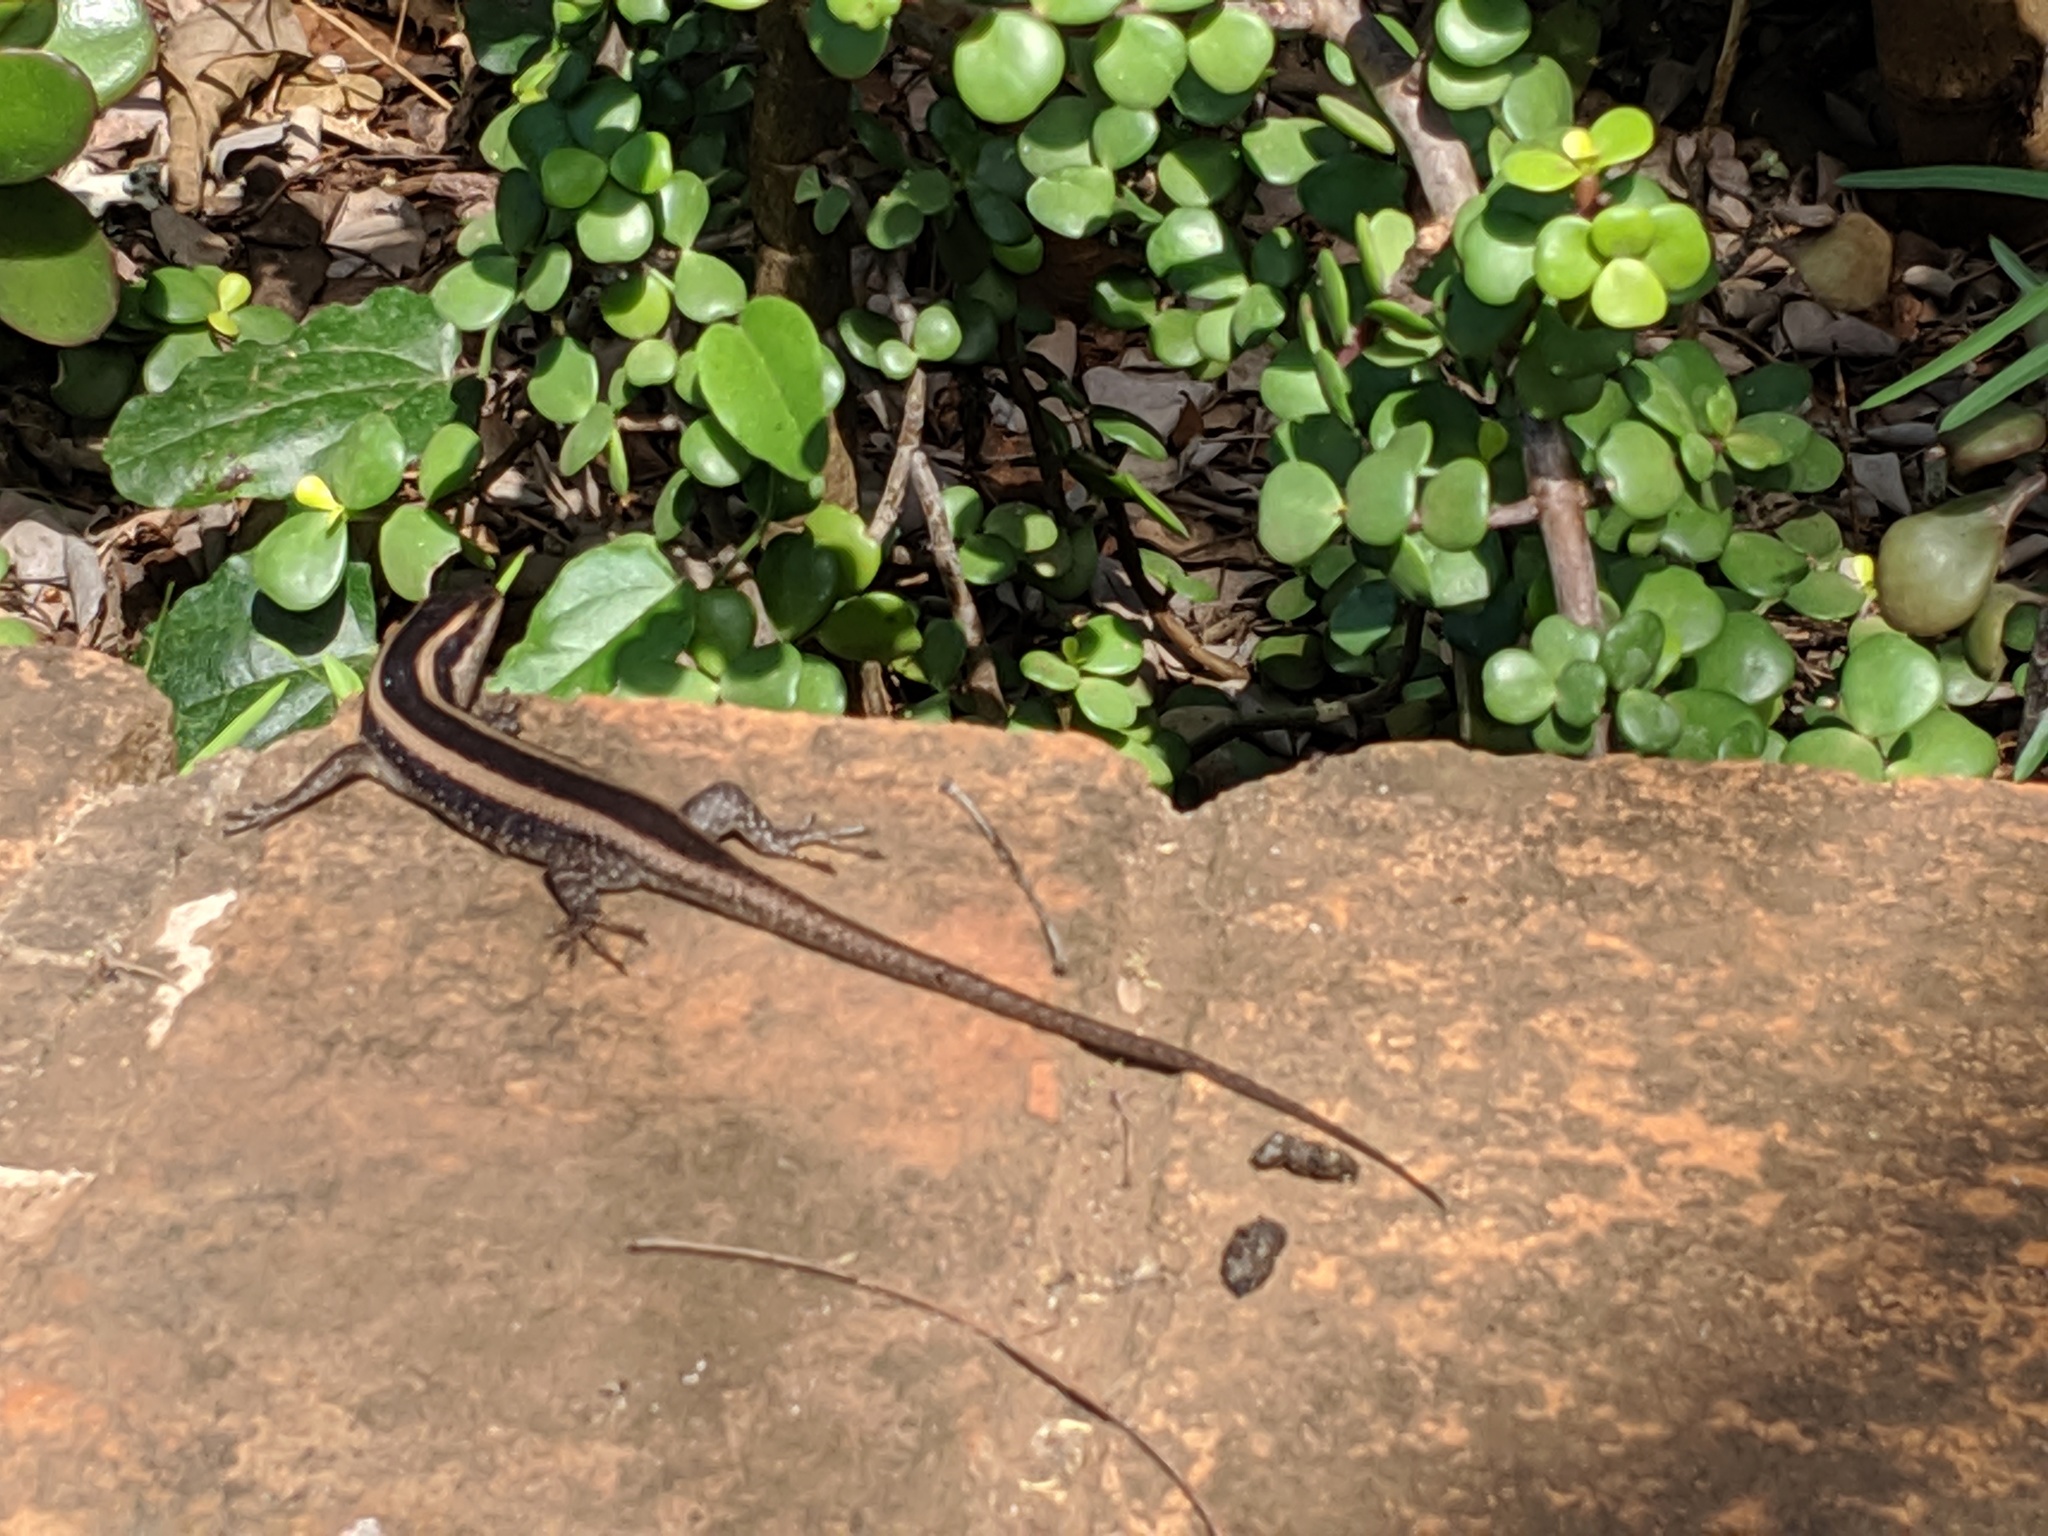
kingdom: Animalia
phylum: Chordata
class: Squamata
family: Scincidae
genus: Trachylepis
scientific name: Trachylepis striata
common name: African striped mabuya
